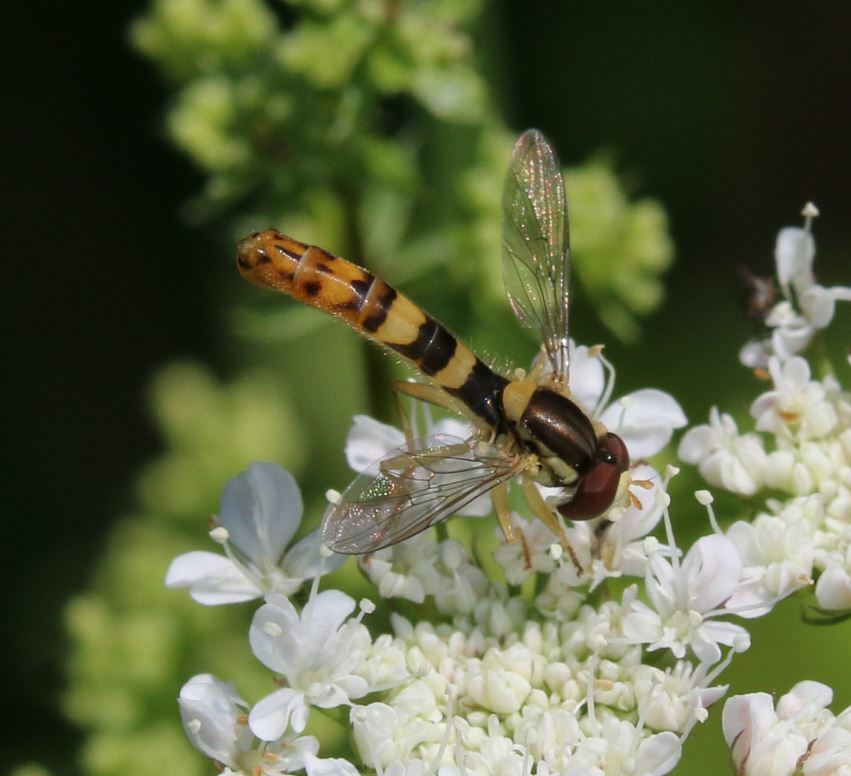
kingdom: Animalia
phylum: Arthropoda
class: Insecta
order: Diptera
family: Syrphidae
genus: Sphaerophoria
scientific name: Sphaerophoria scripta
